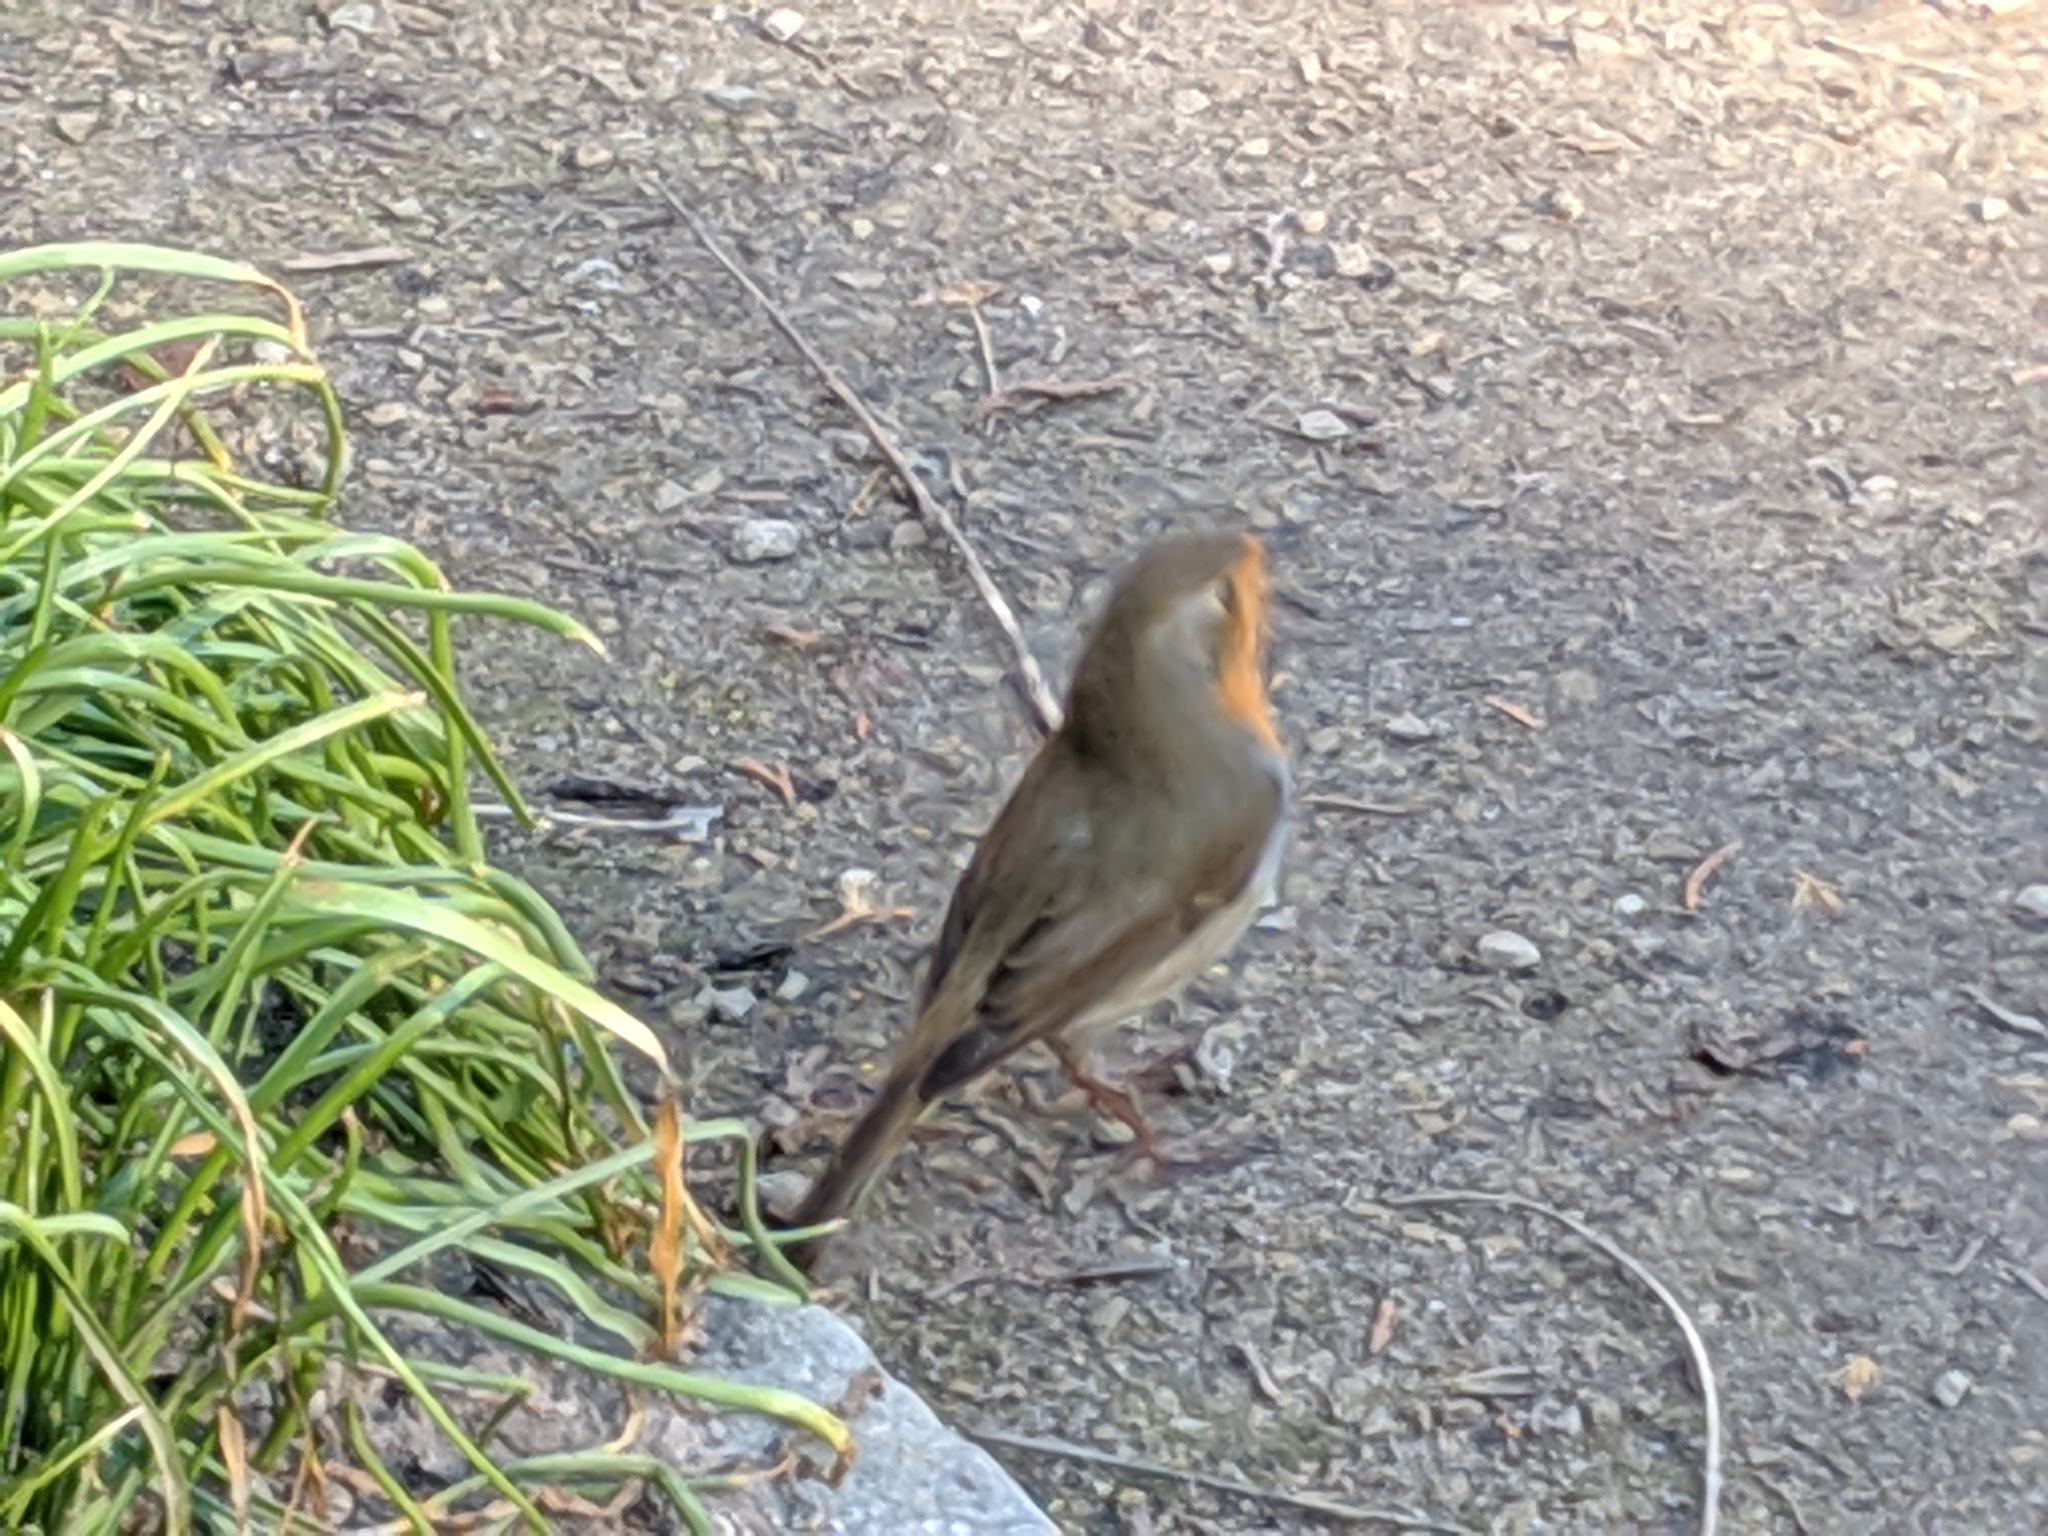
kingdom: Animalia
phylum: Chordata
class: Aves
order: Passeriformes
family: Muscicapidae
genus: Erithacus
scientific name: Erithacus rubecula
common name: European robin
